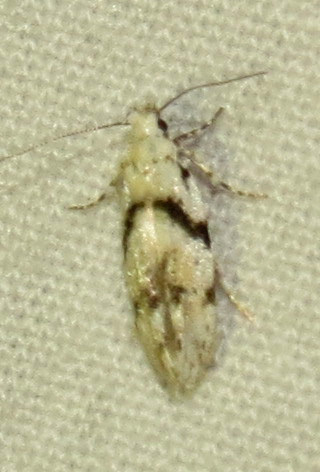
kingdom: Animalia
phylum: Arthropoda
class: Insecta
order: Lepidoptera
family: Gelechiidae
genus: Arogalea
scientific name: Arogalea cristifasciella
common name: White stripe-backed moth
